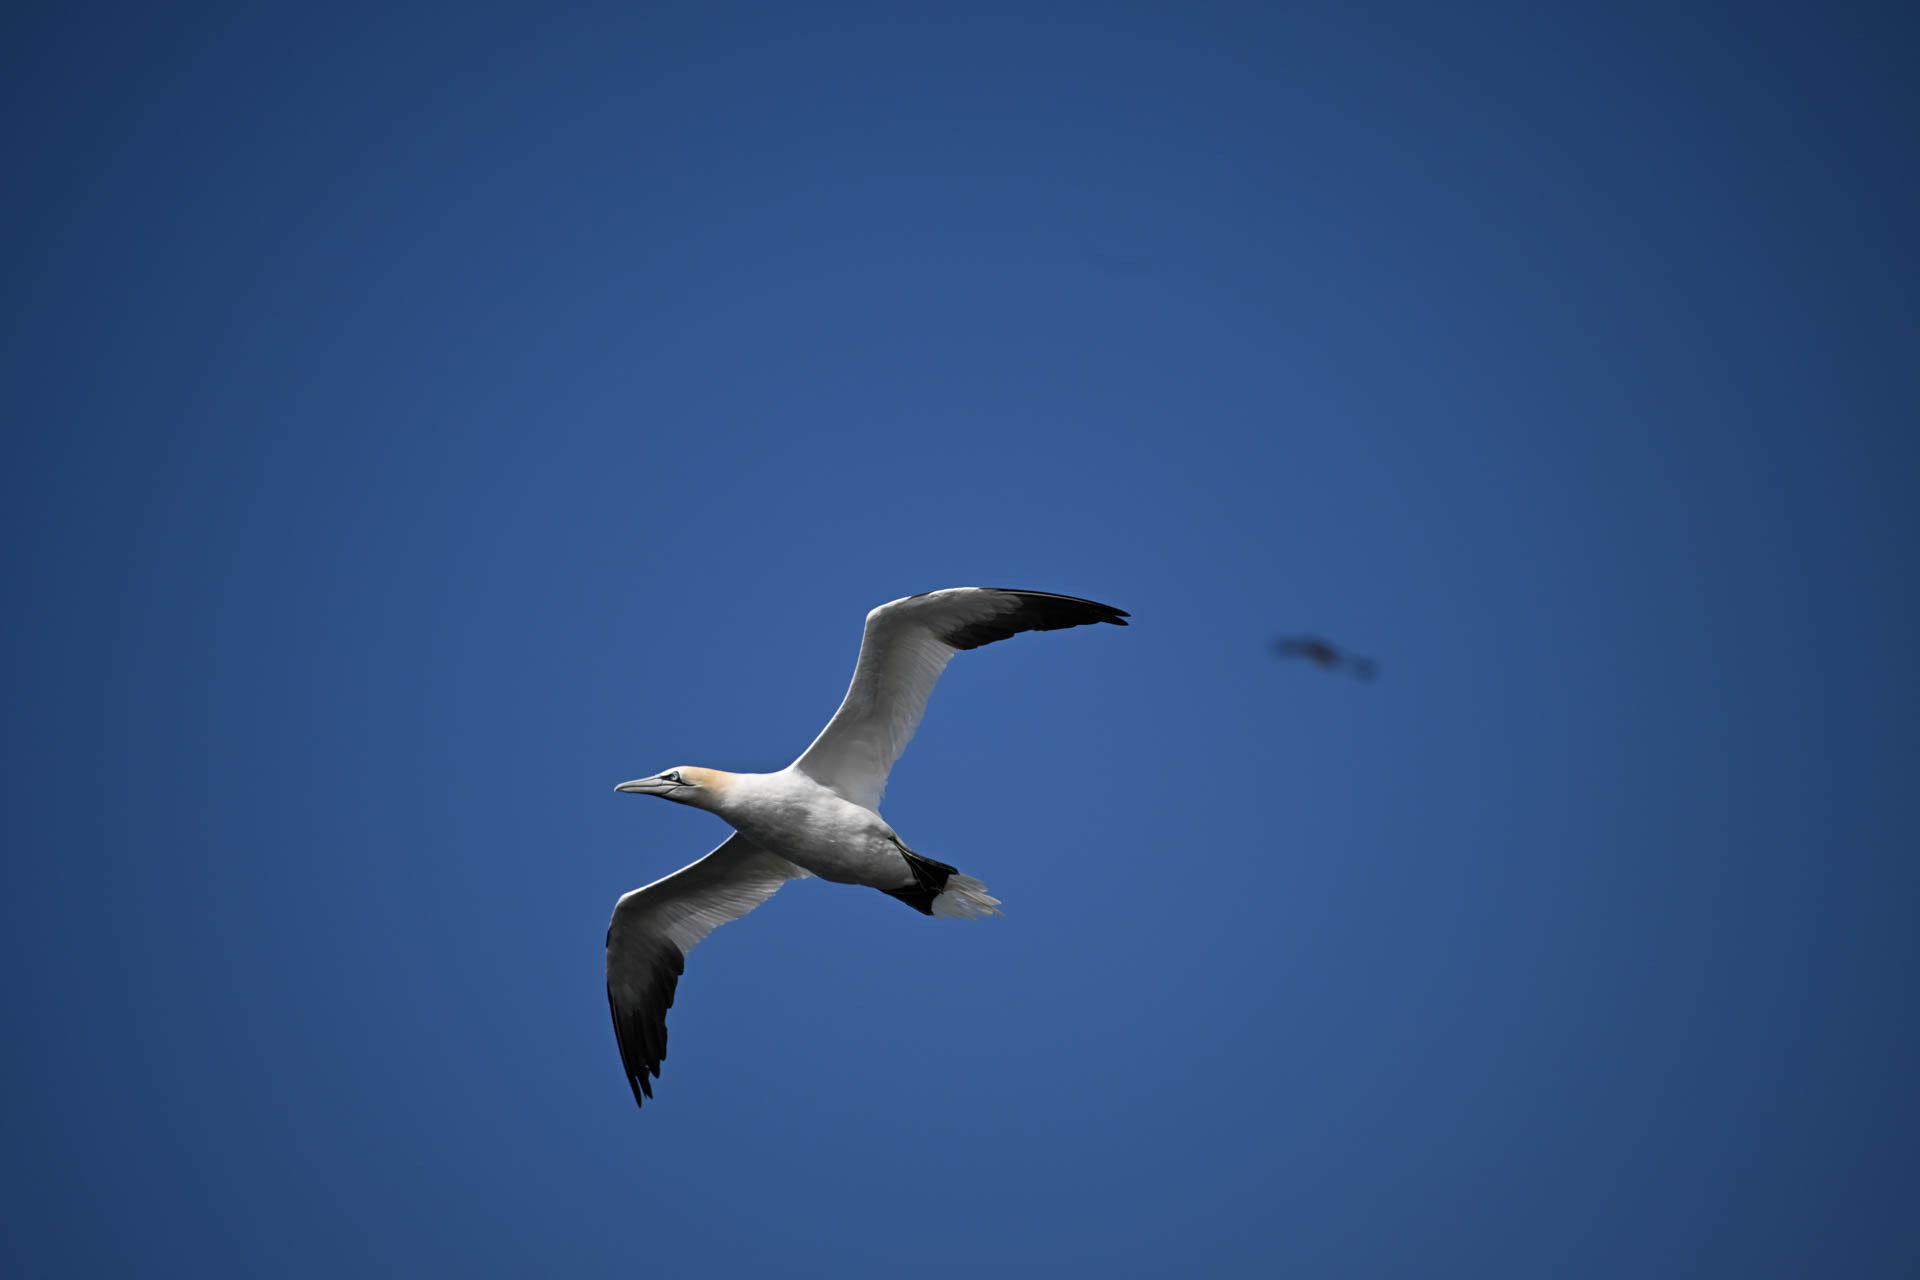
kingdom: Animalia
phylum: Chordata
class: Aves
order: Suliformes
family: Sulidae
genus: Morus
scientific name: Morus bassanus
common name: Northern gannet
